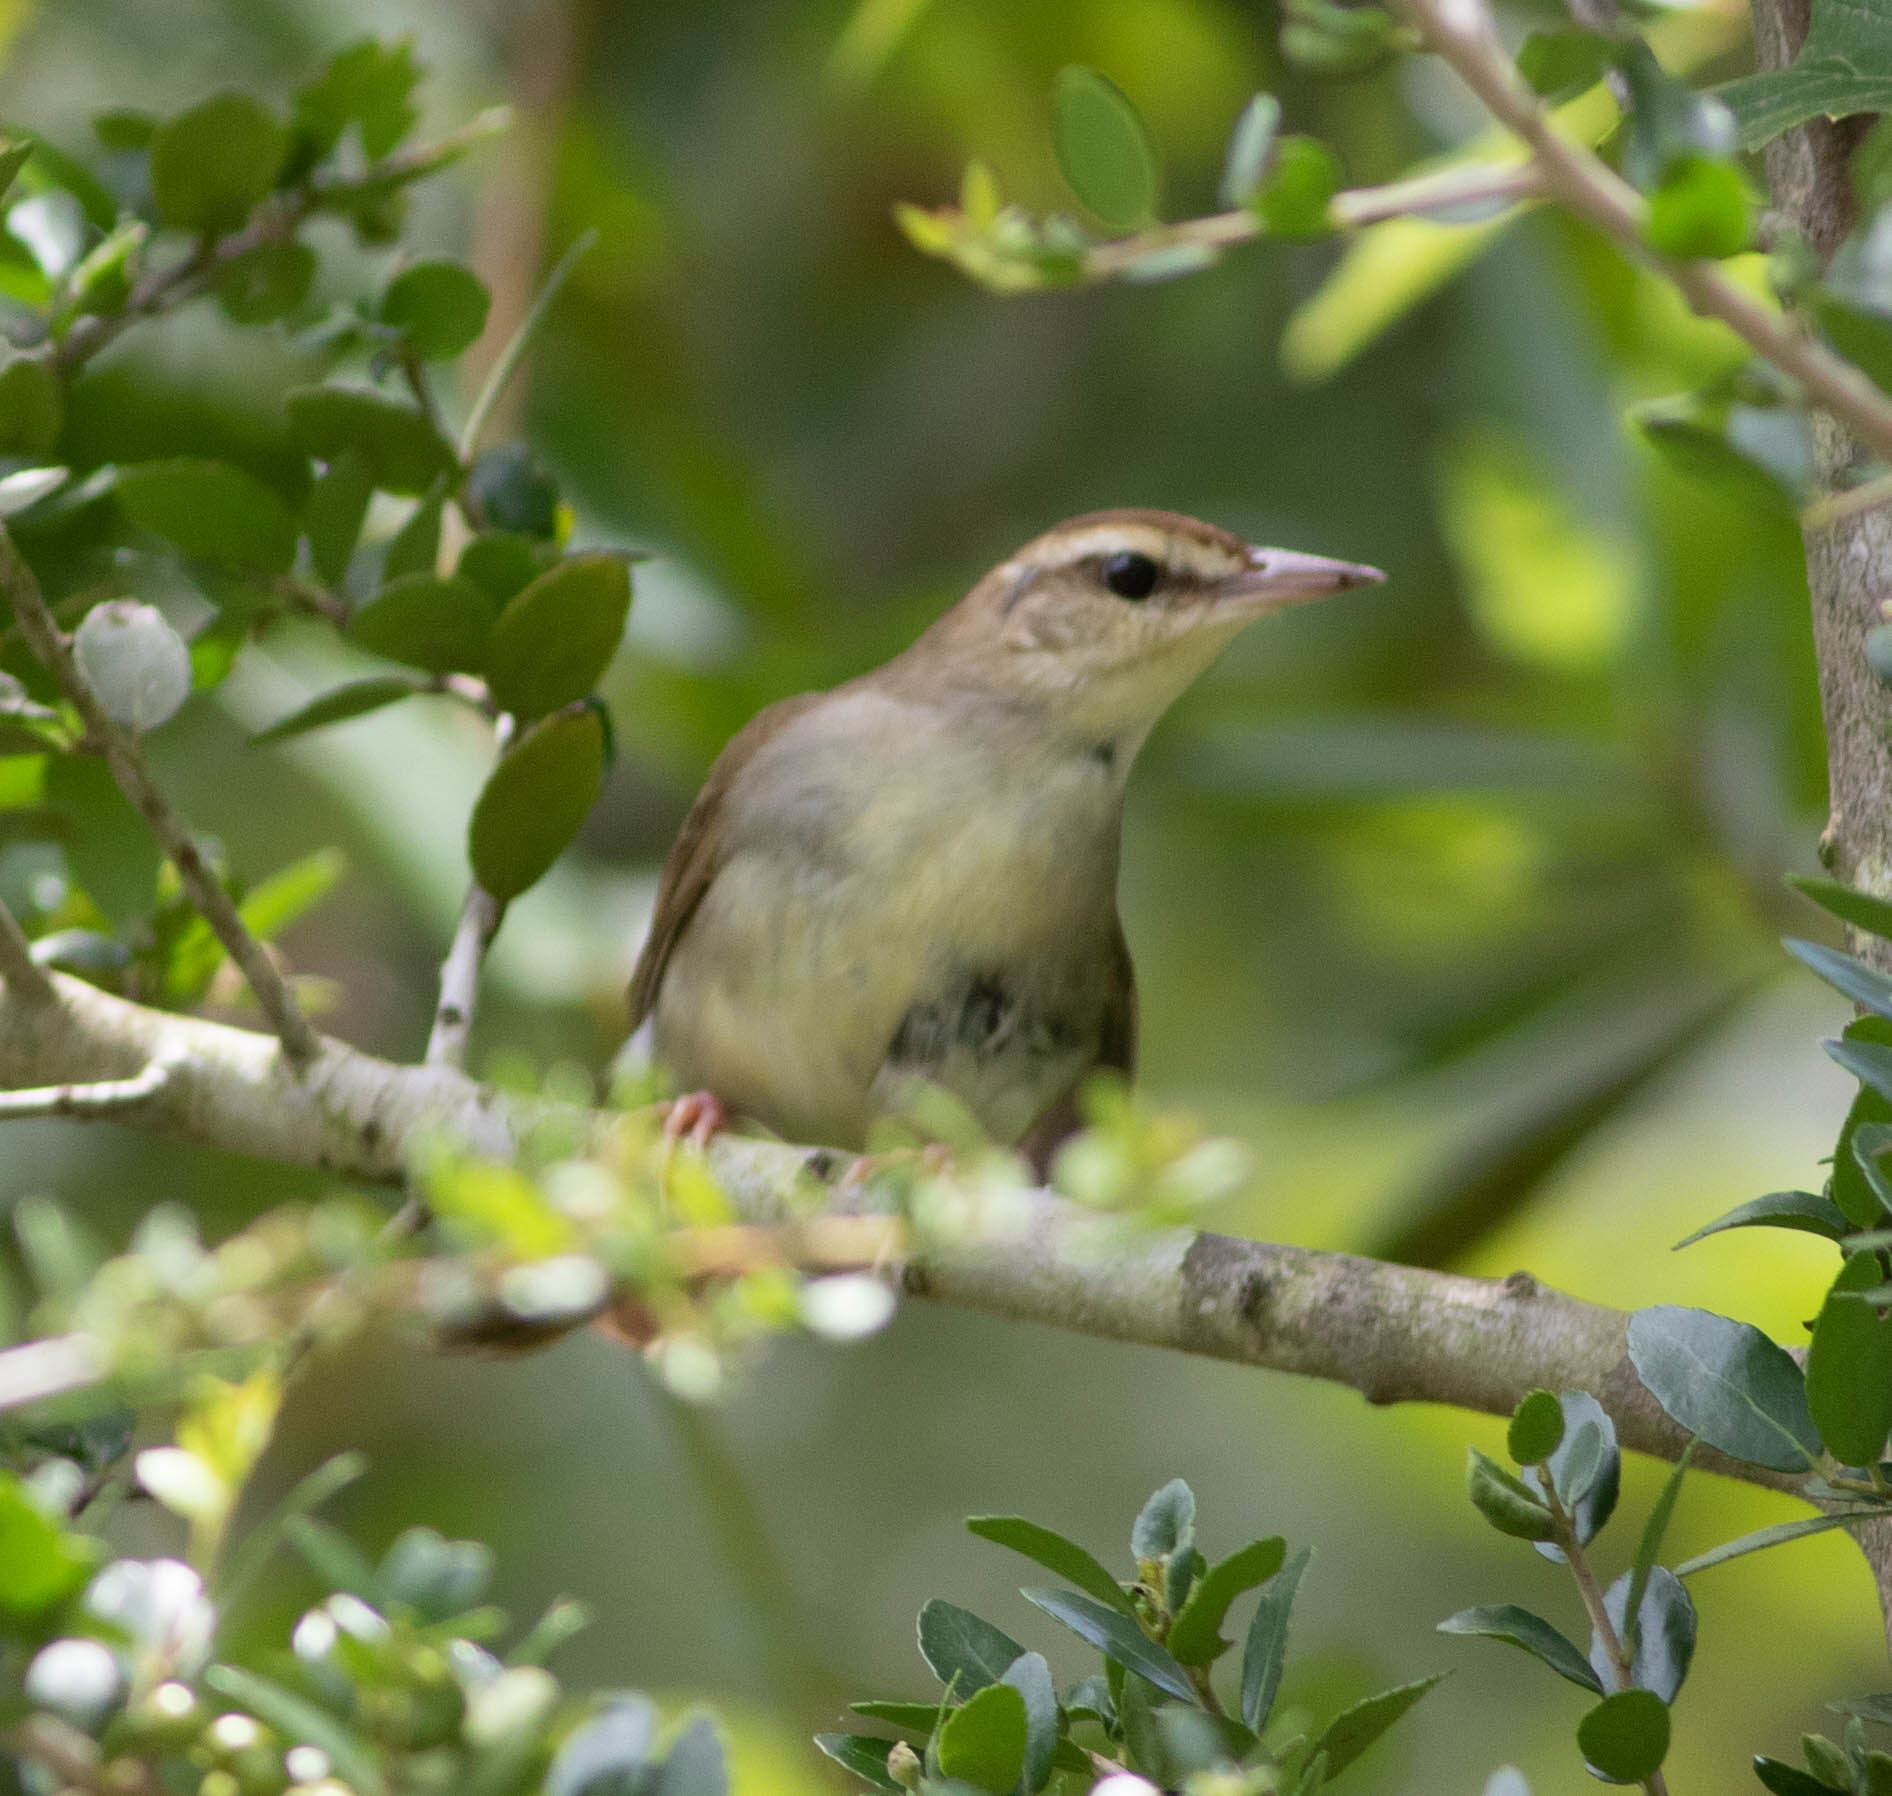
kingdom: Animalia
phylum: Chordata
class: Aves
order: Passeriformes
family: Parulidae
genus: Limnothlypis
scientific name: Limnothlypis swainsonii
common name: Swainson's warbler
